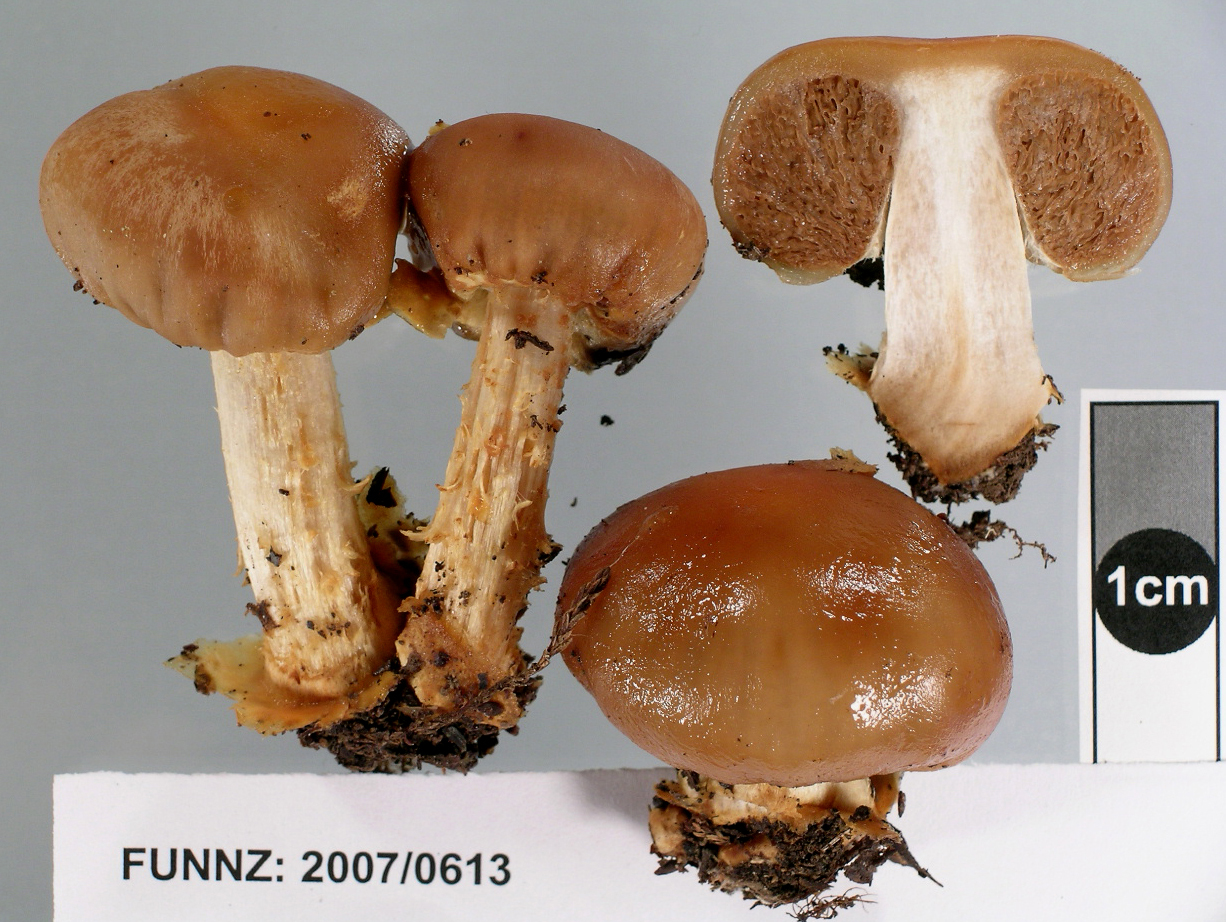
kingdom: Fungi
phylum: Basidiomycota
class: Agaricomycetes
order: Agaricales
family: Cortinariaceae
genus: Cortinarius
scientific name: Cortinarius epiphaeus
